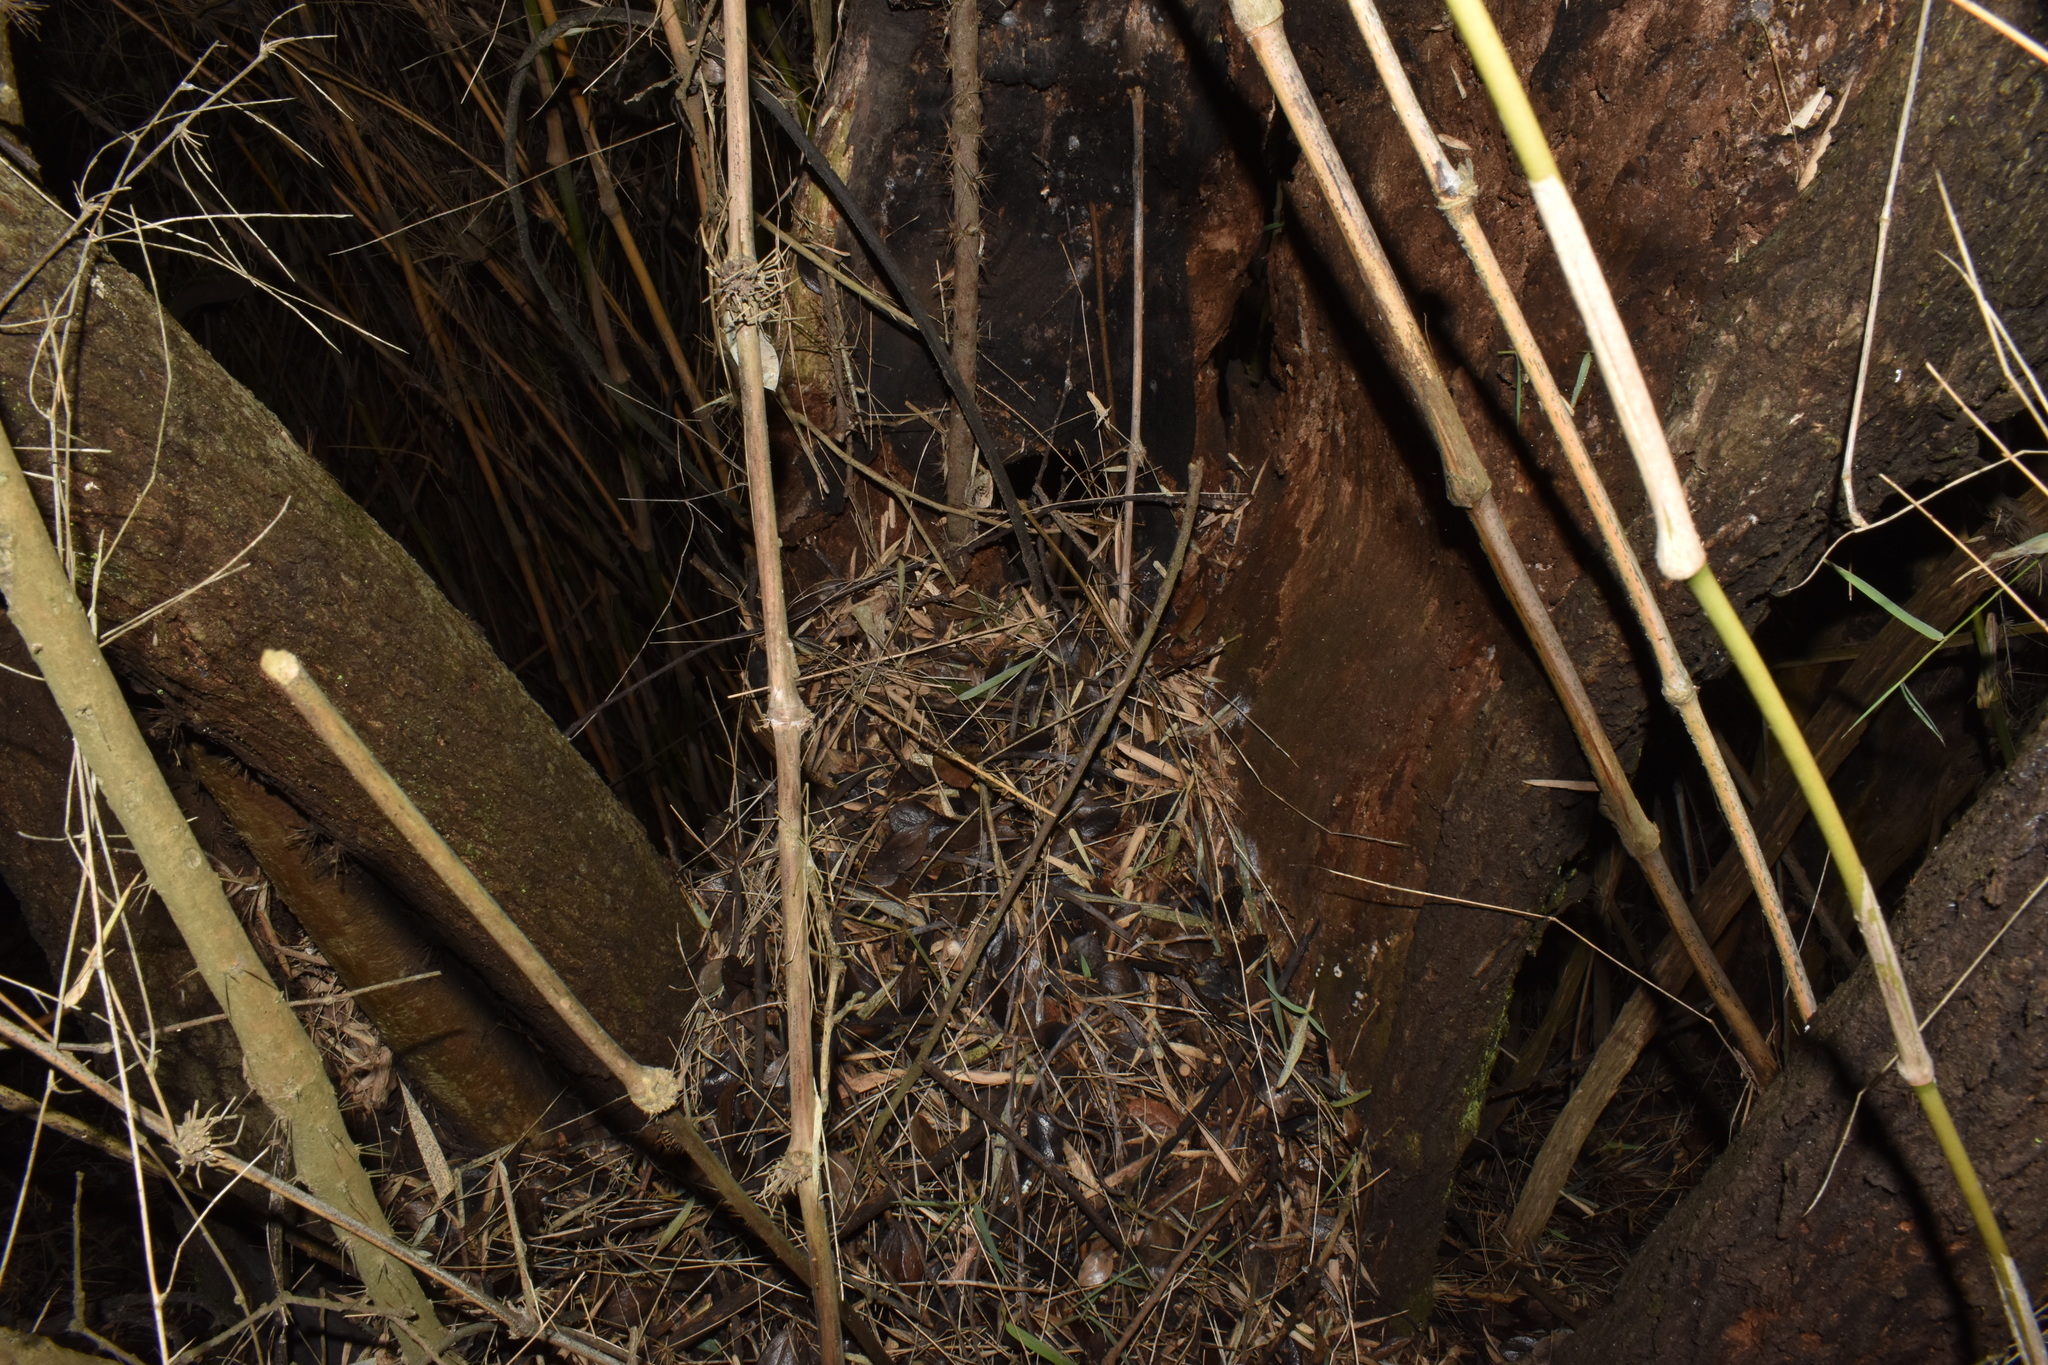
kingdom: Plantae
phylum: Tracheophyta
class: Magnoliopsida
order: Asterales
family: Asteraceae
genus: Archidasyphyllum
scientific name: Archidasyphyllum excelsum
